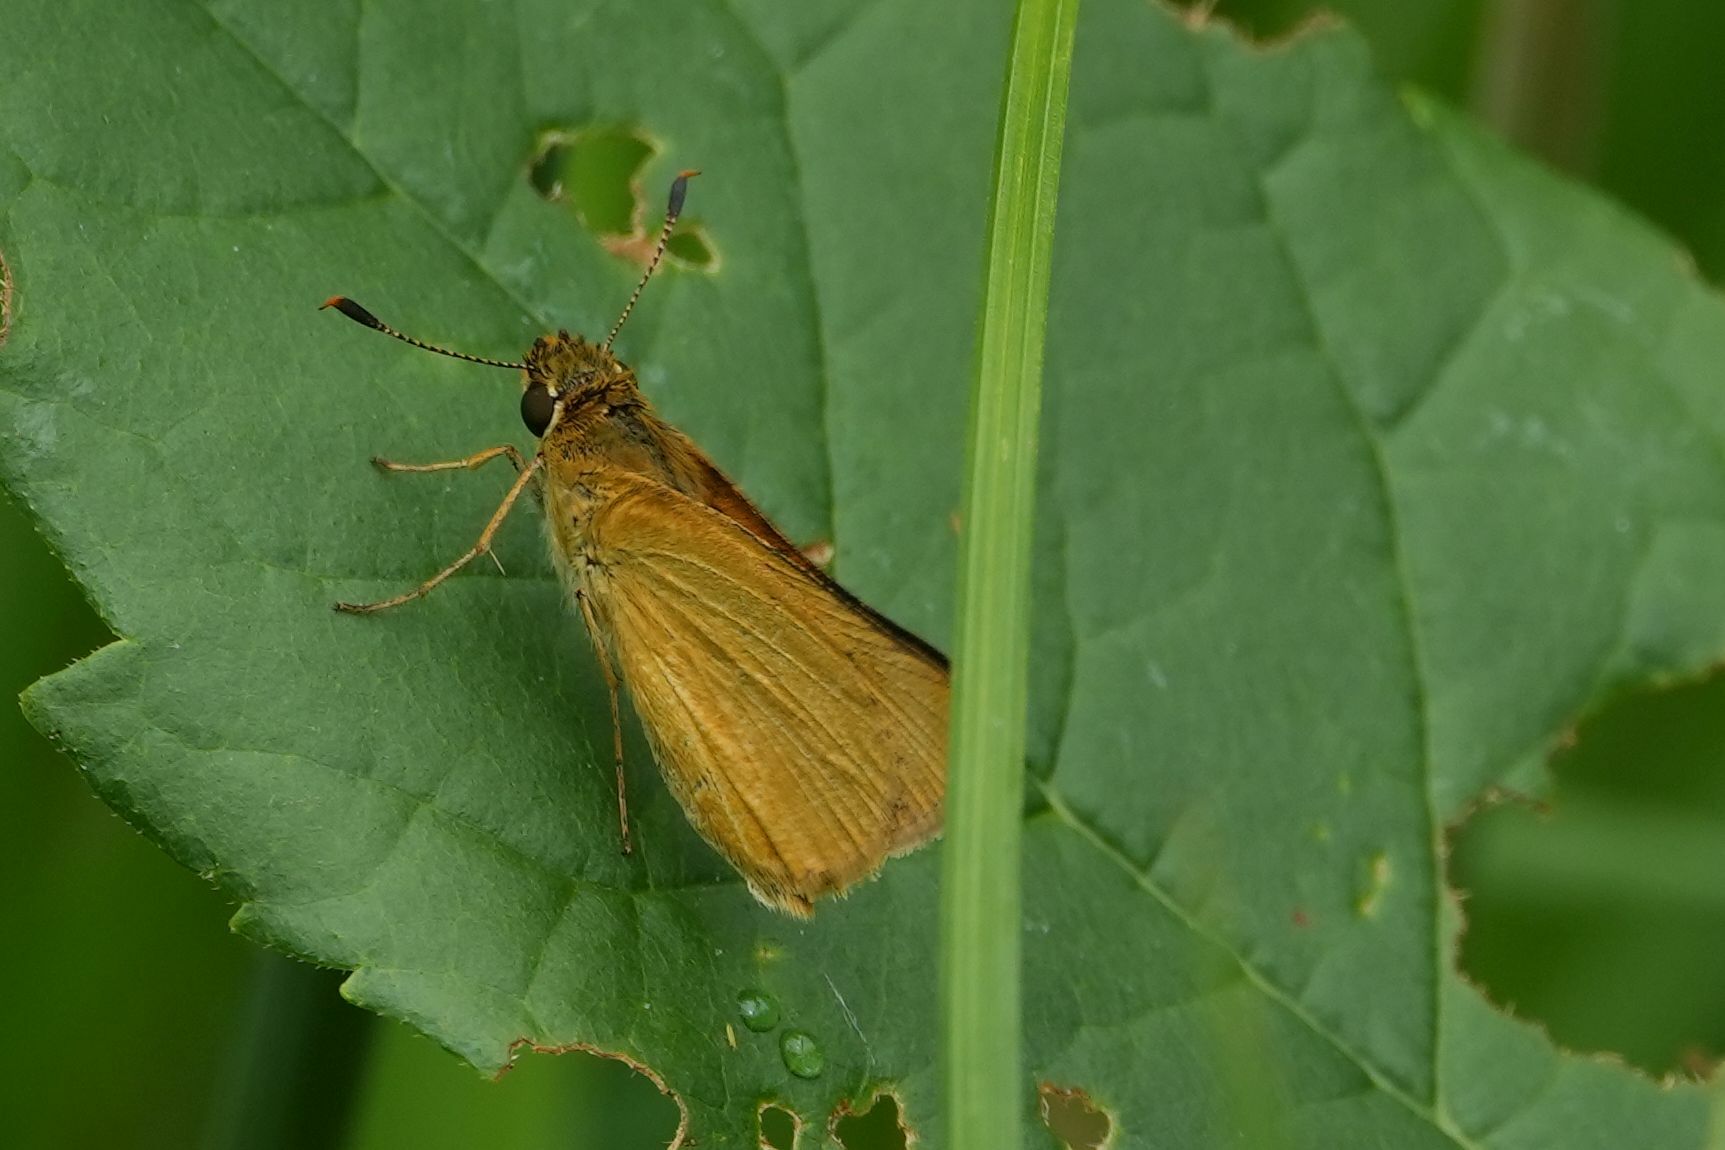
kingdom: Animalia
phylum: Arthropoda
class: Insecta
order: Lepidoptera
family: Hesperiidae
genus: Atrytone
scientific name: Atrytone delaware
